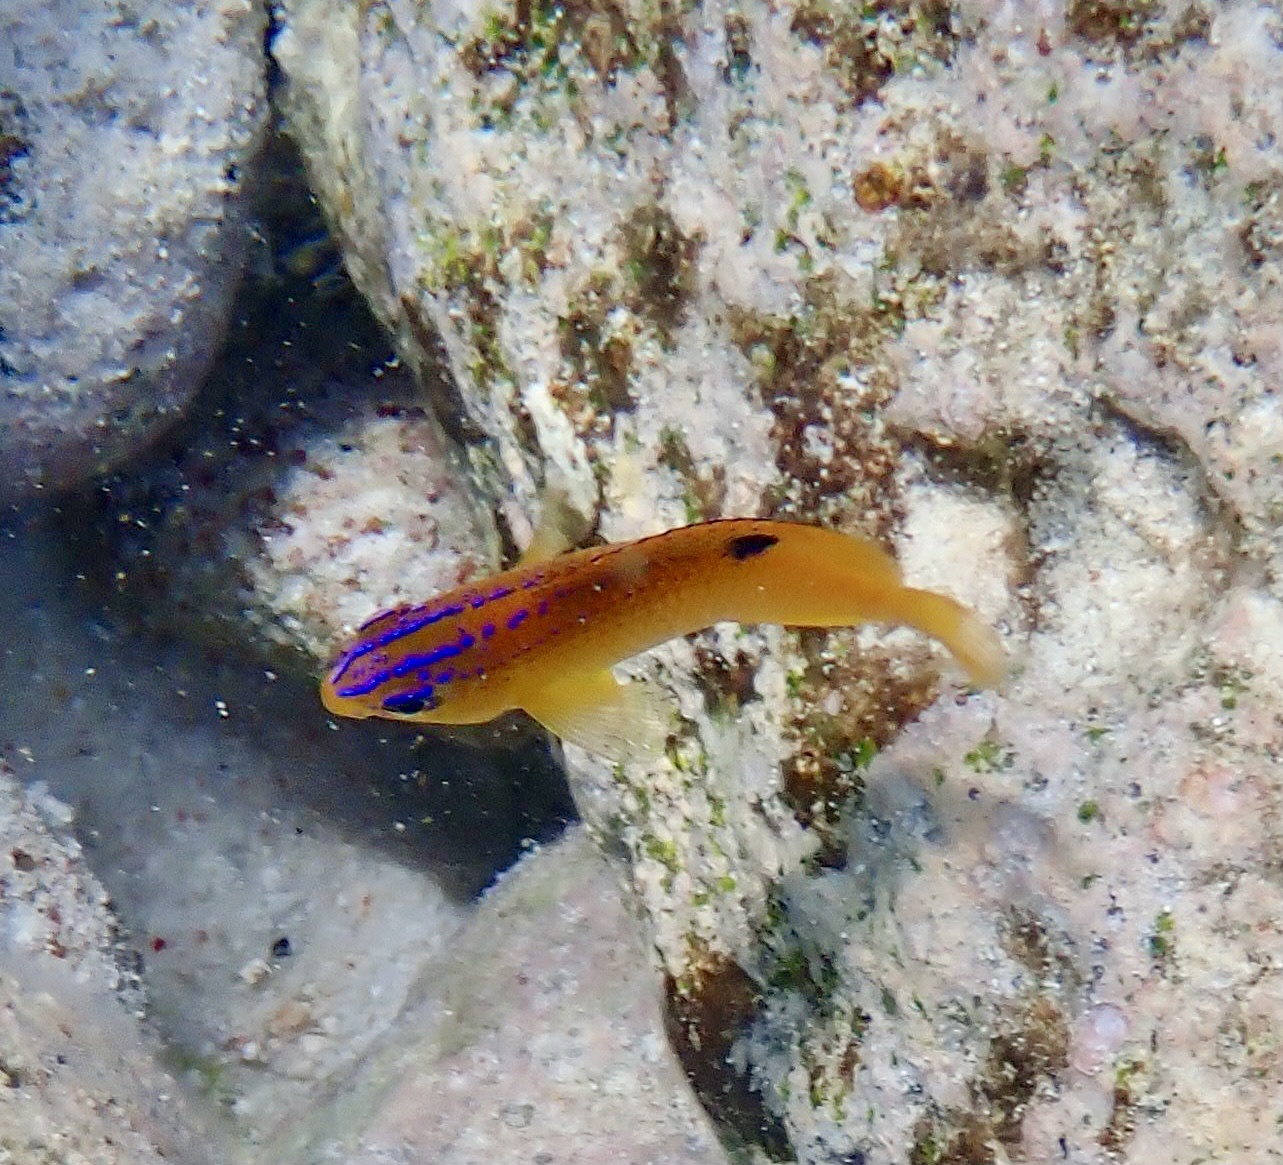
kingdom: Animalia
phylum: Chordata
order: Perciformes
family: Pomacentridae
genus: Stegastes
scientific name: Stegastes diencaeus
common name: Longfin damselfish
